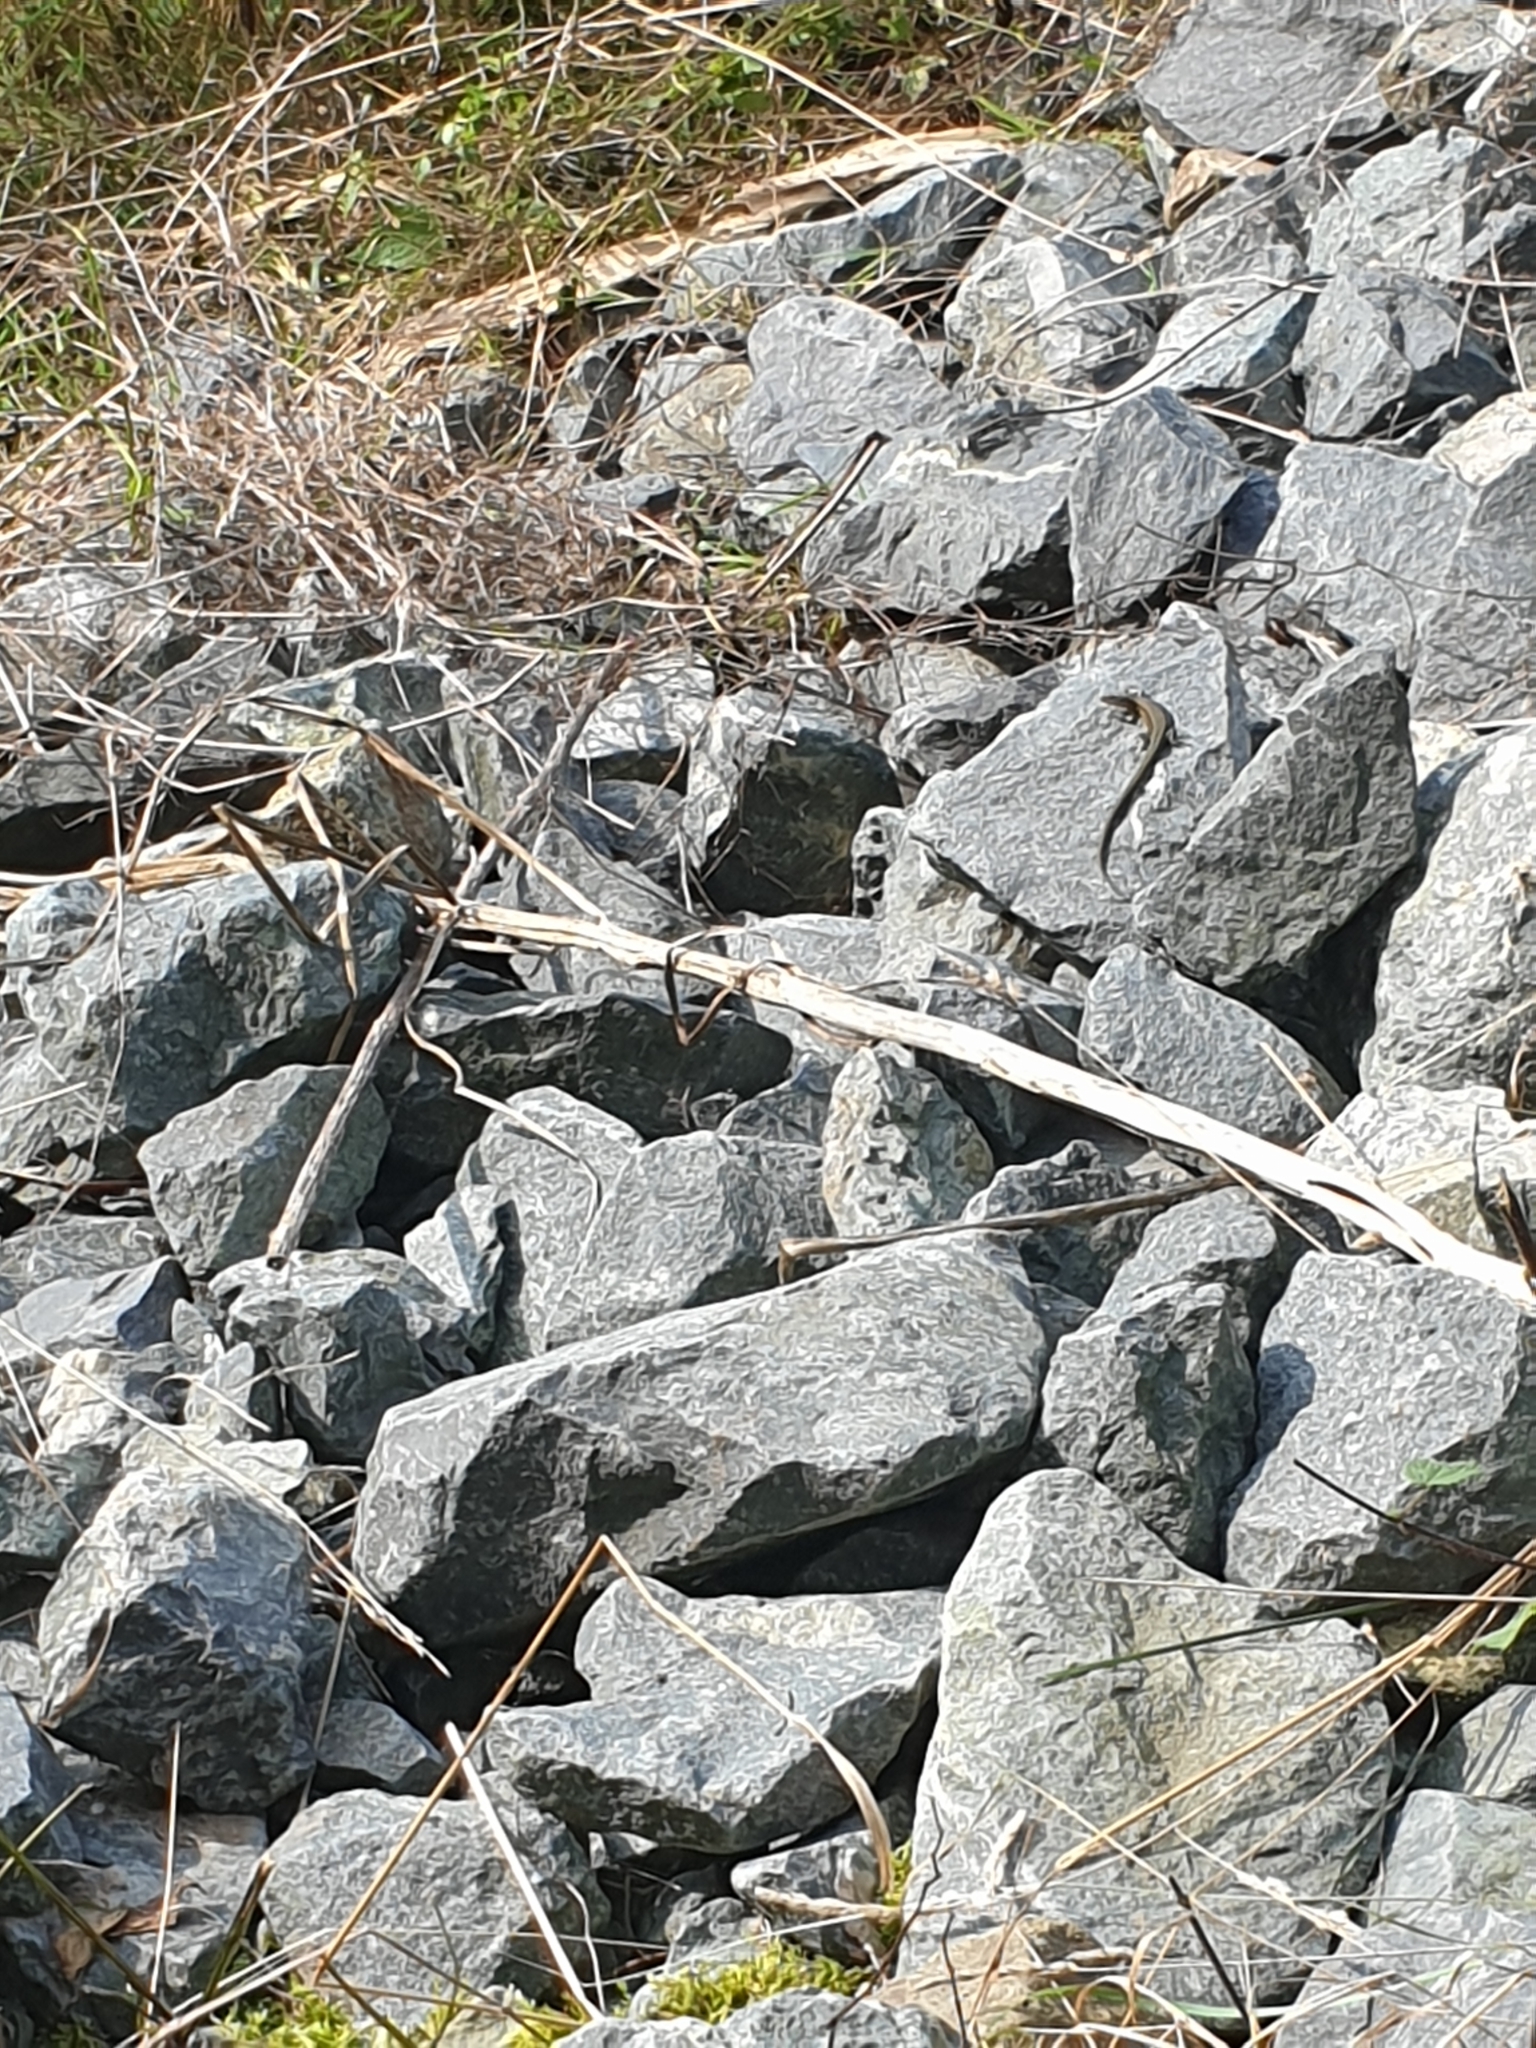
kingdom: Animalia
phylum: Chordata
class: Squamata
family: Lacertidae
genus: Zootoca
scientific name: Zootoca vivipara
